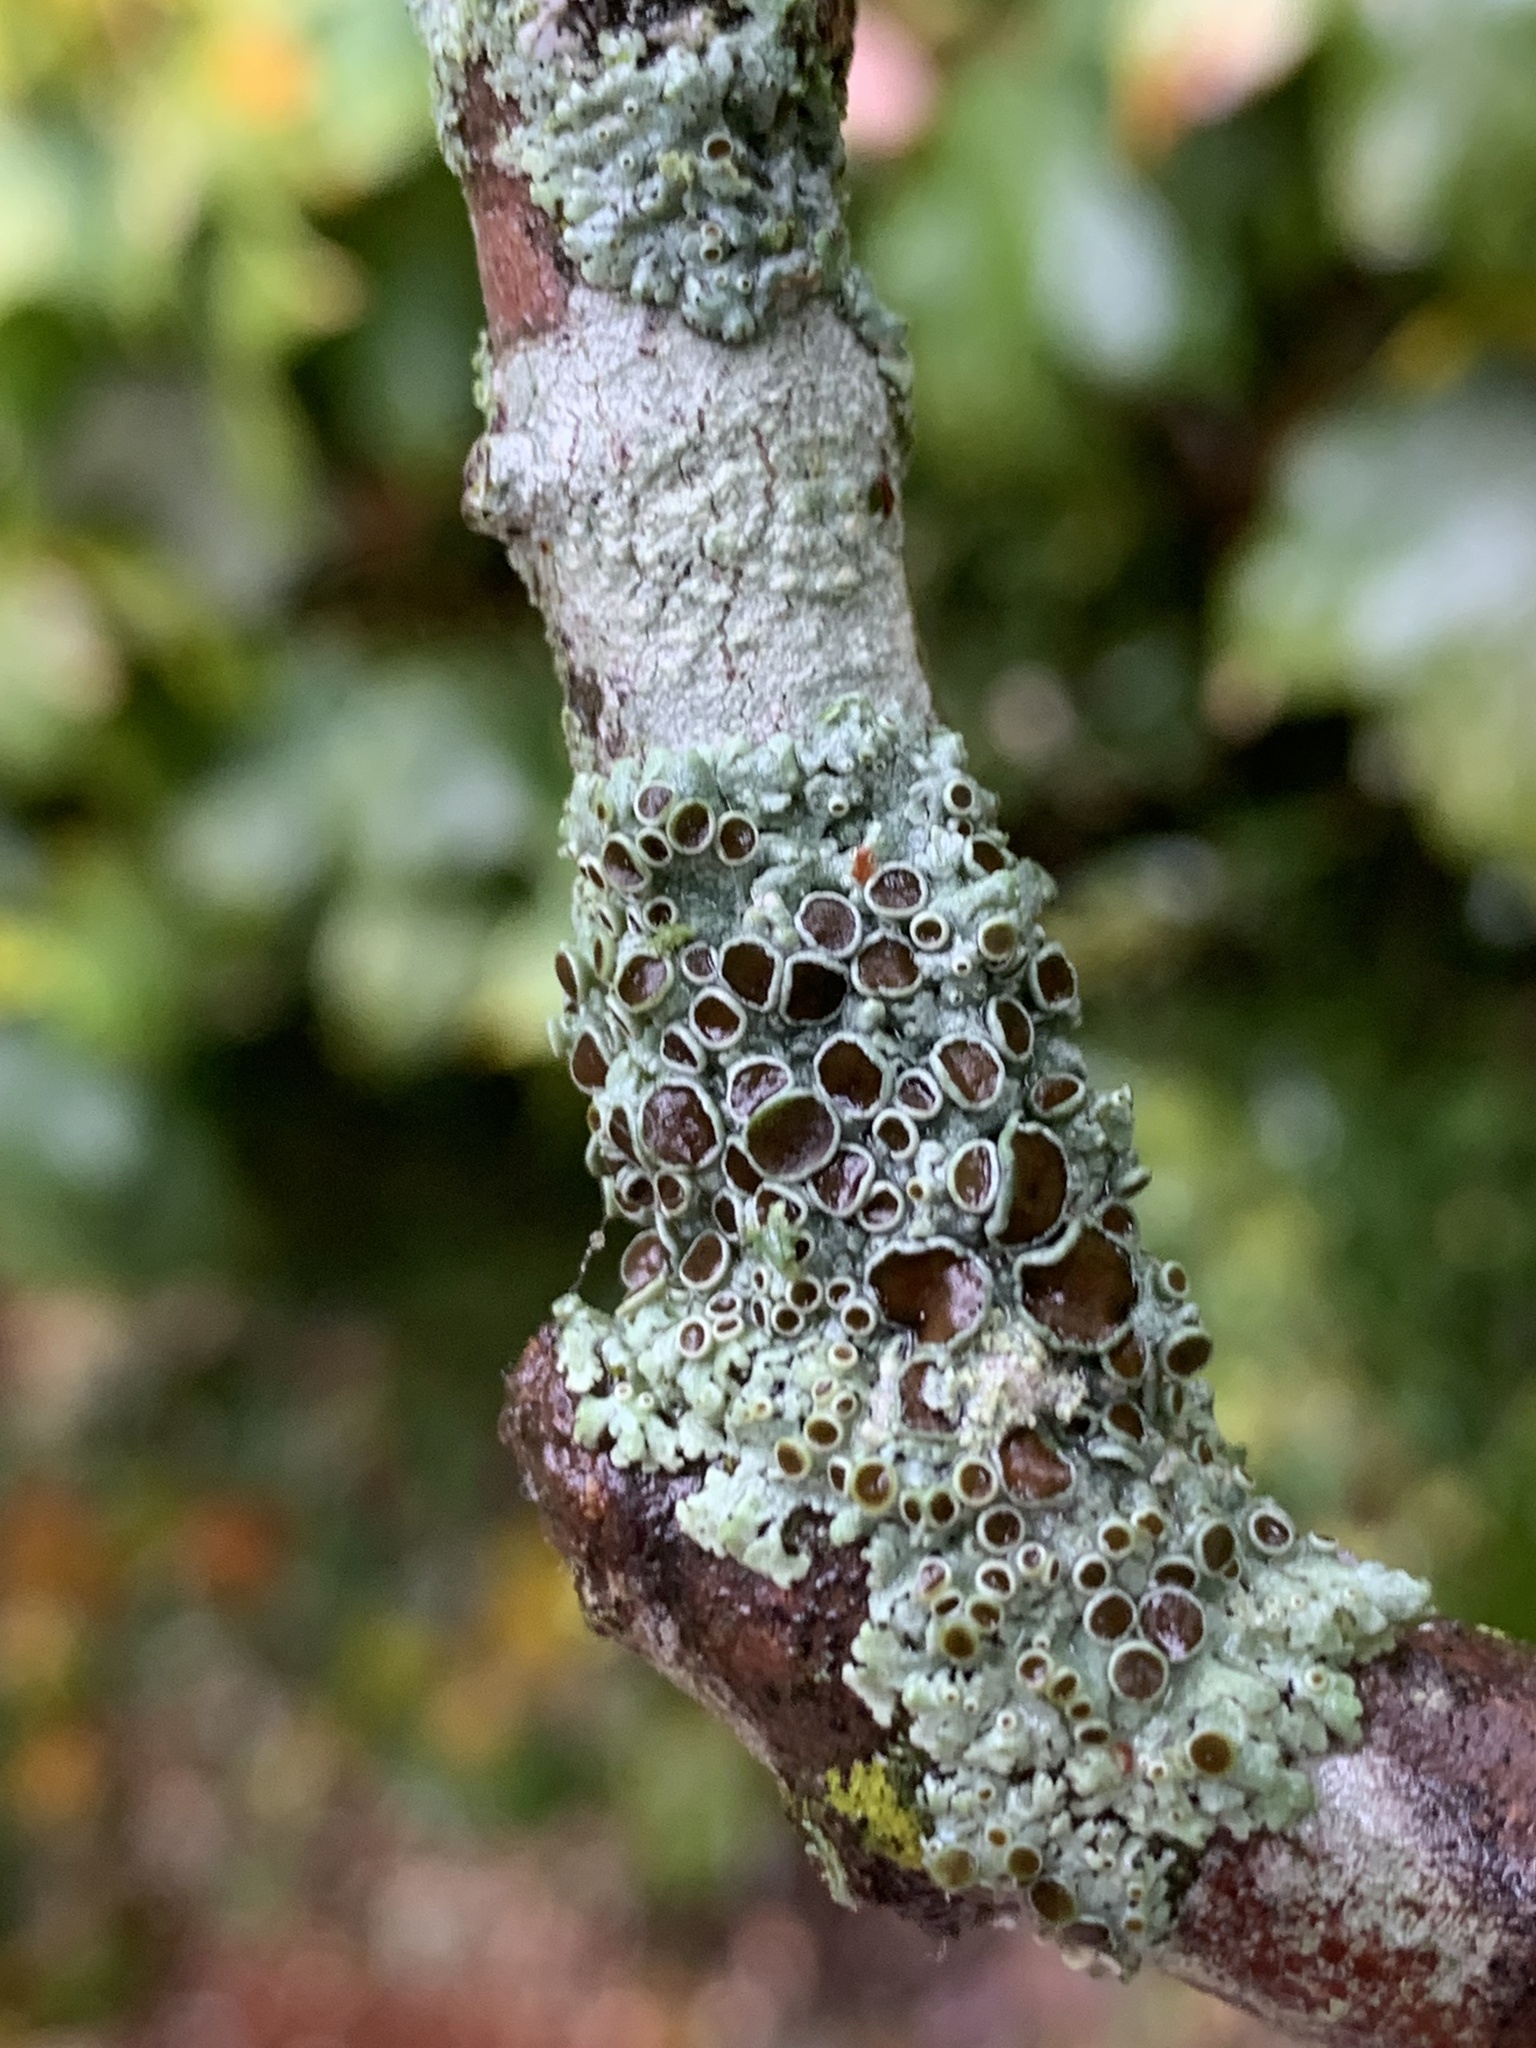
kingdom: Fungi
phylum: Ascomycota
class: Lecanoromycetes
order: Caliciales
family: Physciaceae
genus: Physcia
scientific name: Physcia pumilior
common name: Lesser gray legs
